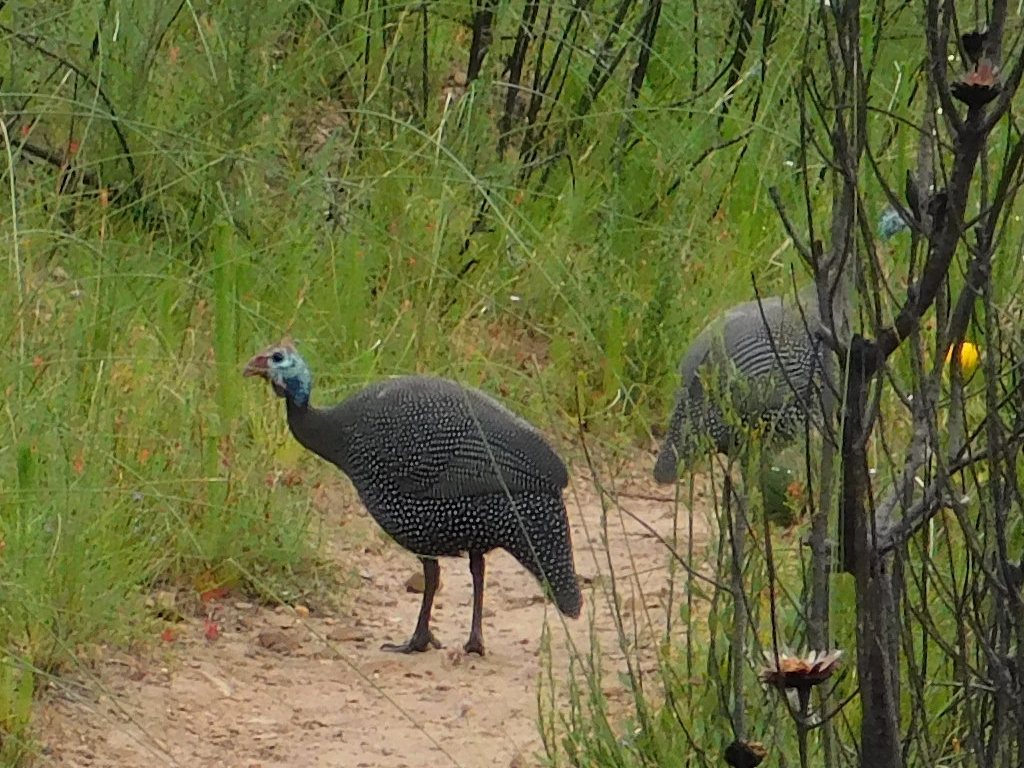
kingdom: Animalia
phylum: Chordata
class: Aves
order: Galliformes
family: Numididae
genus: Numida
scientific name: Numida meleagris
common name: Helmeted guineafowl
